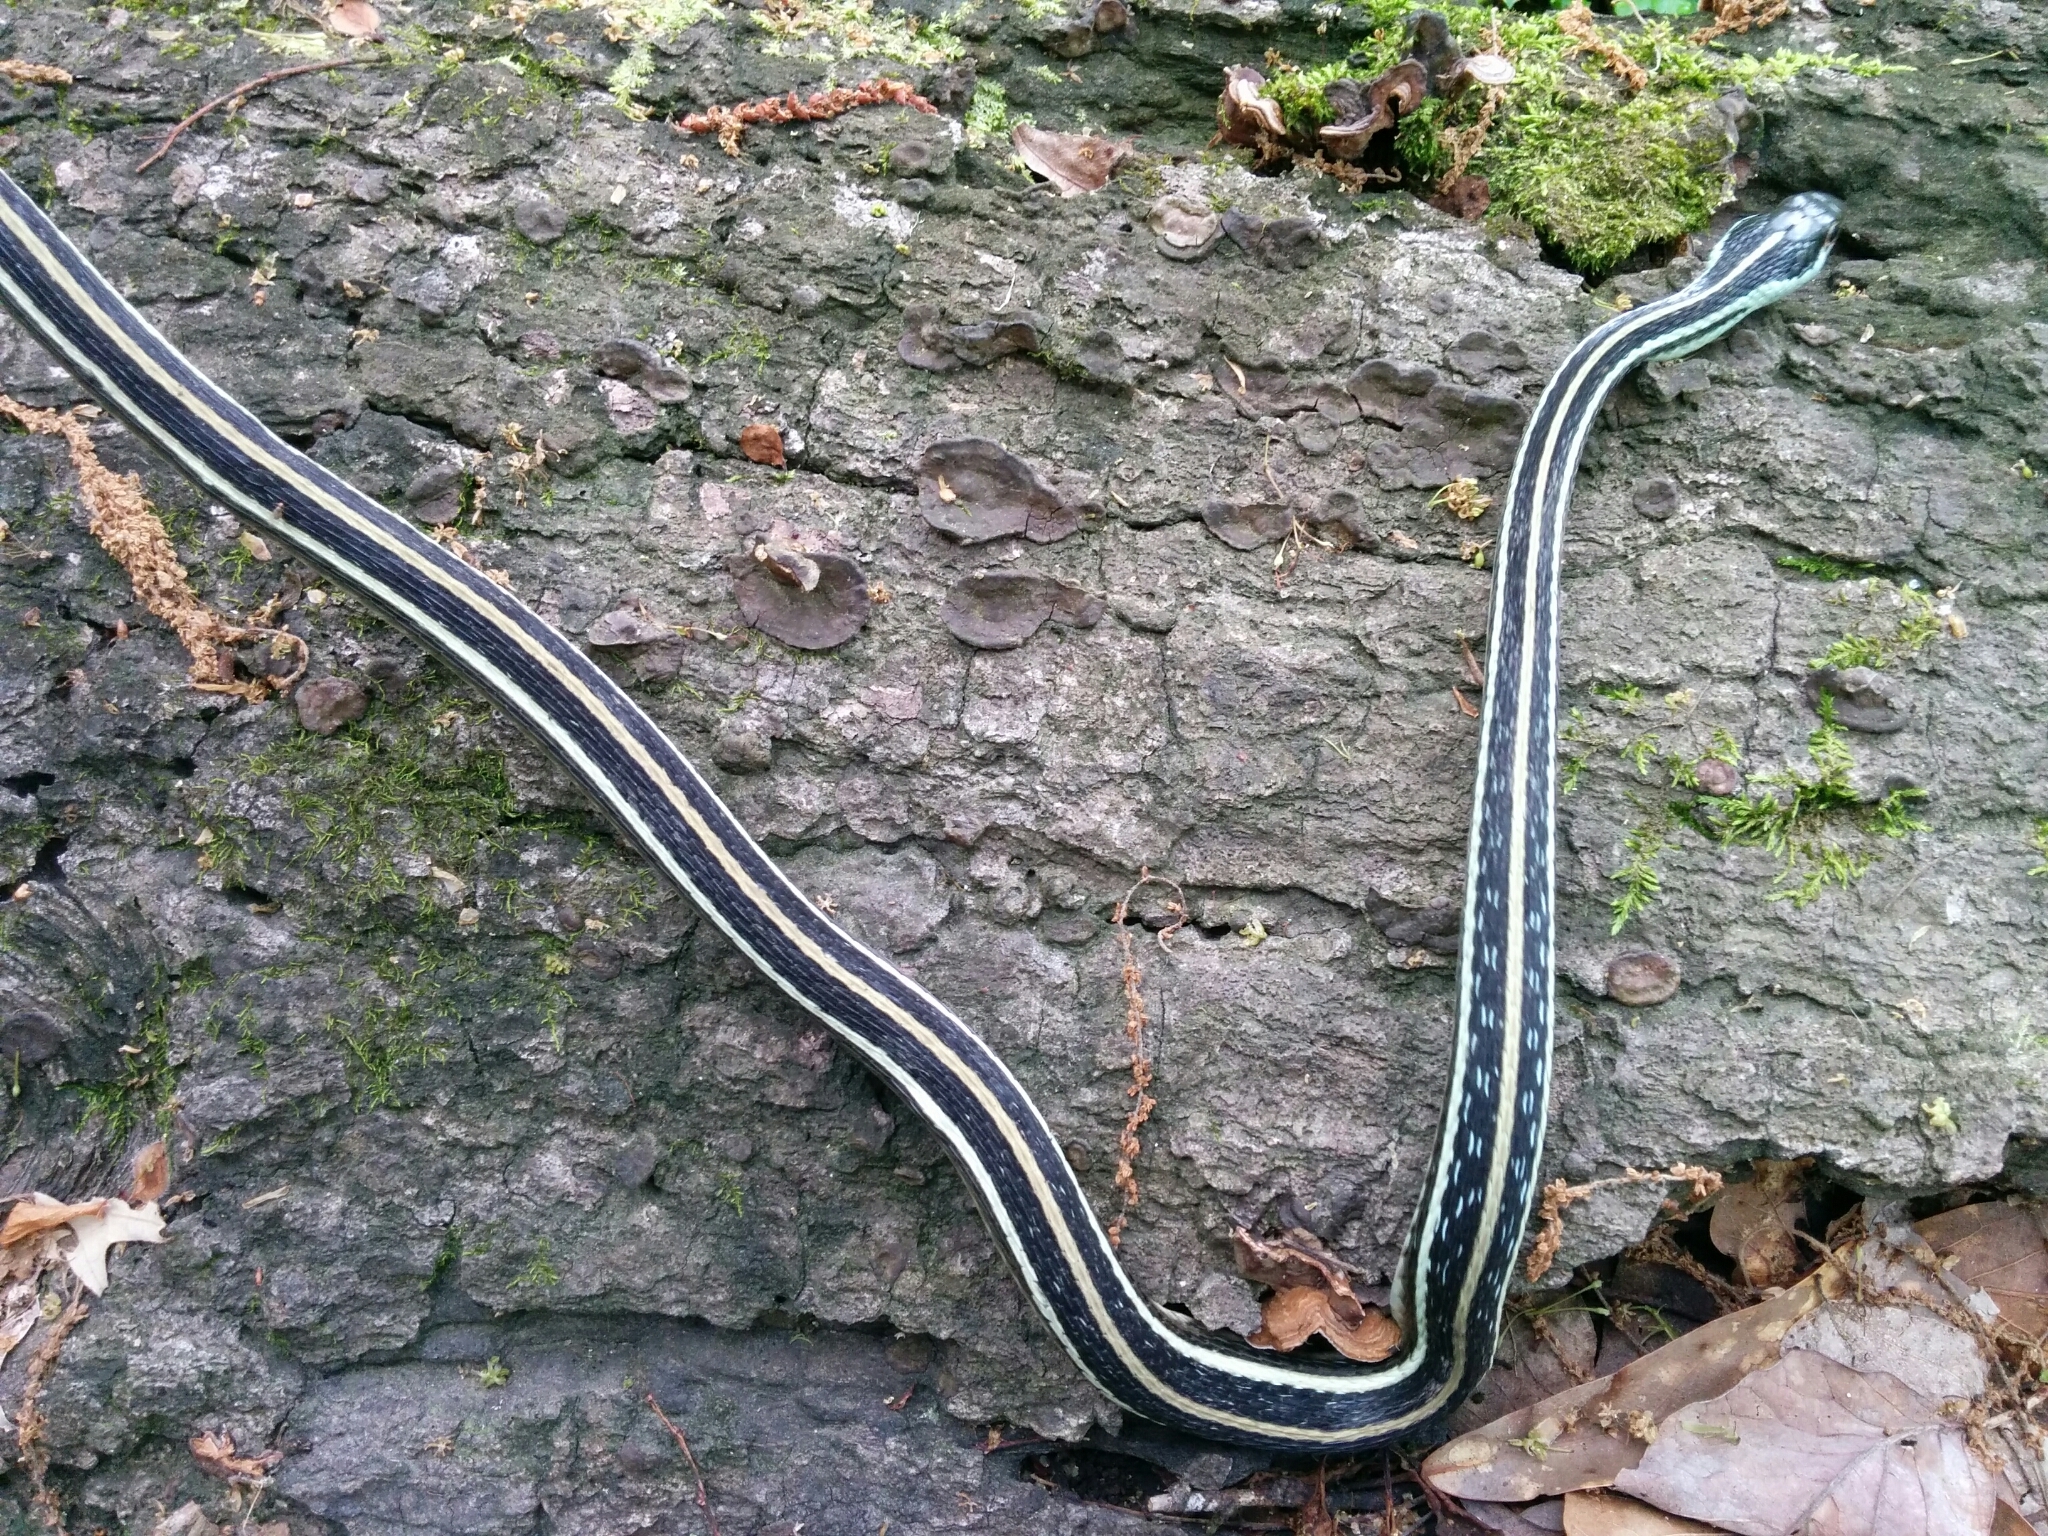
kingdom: Animalia
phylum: Chordata
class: Squamata
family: Colubridae
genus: Thamnophis
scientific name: Thamnophis proximus
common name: Western ribbon snake
